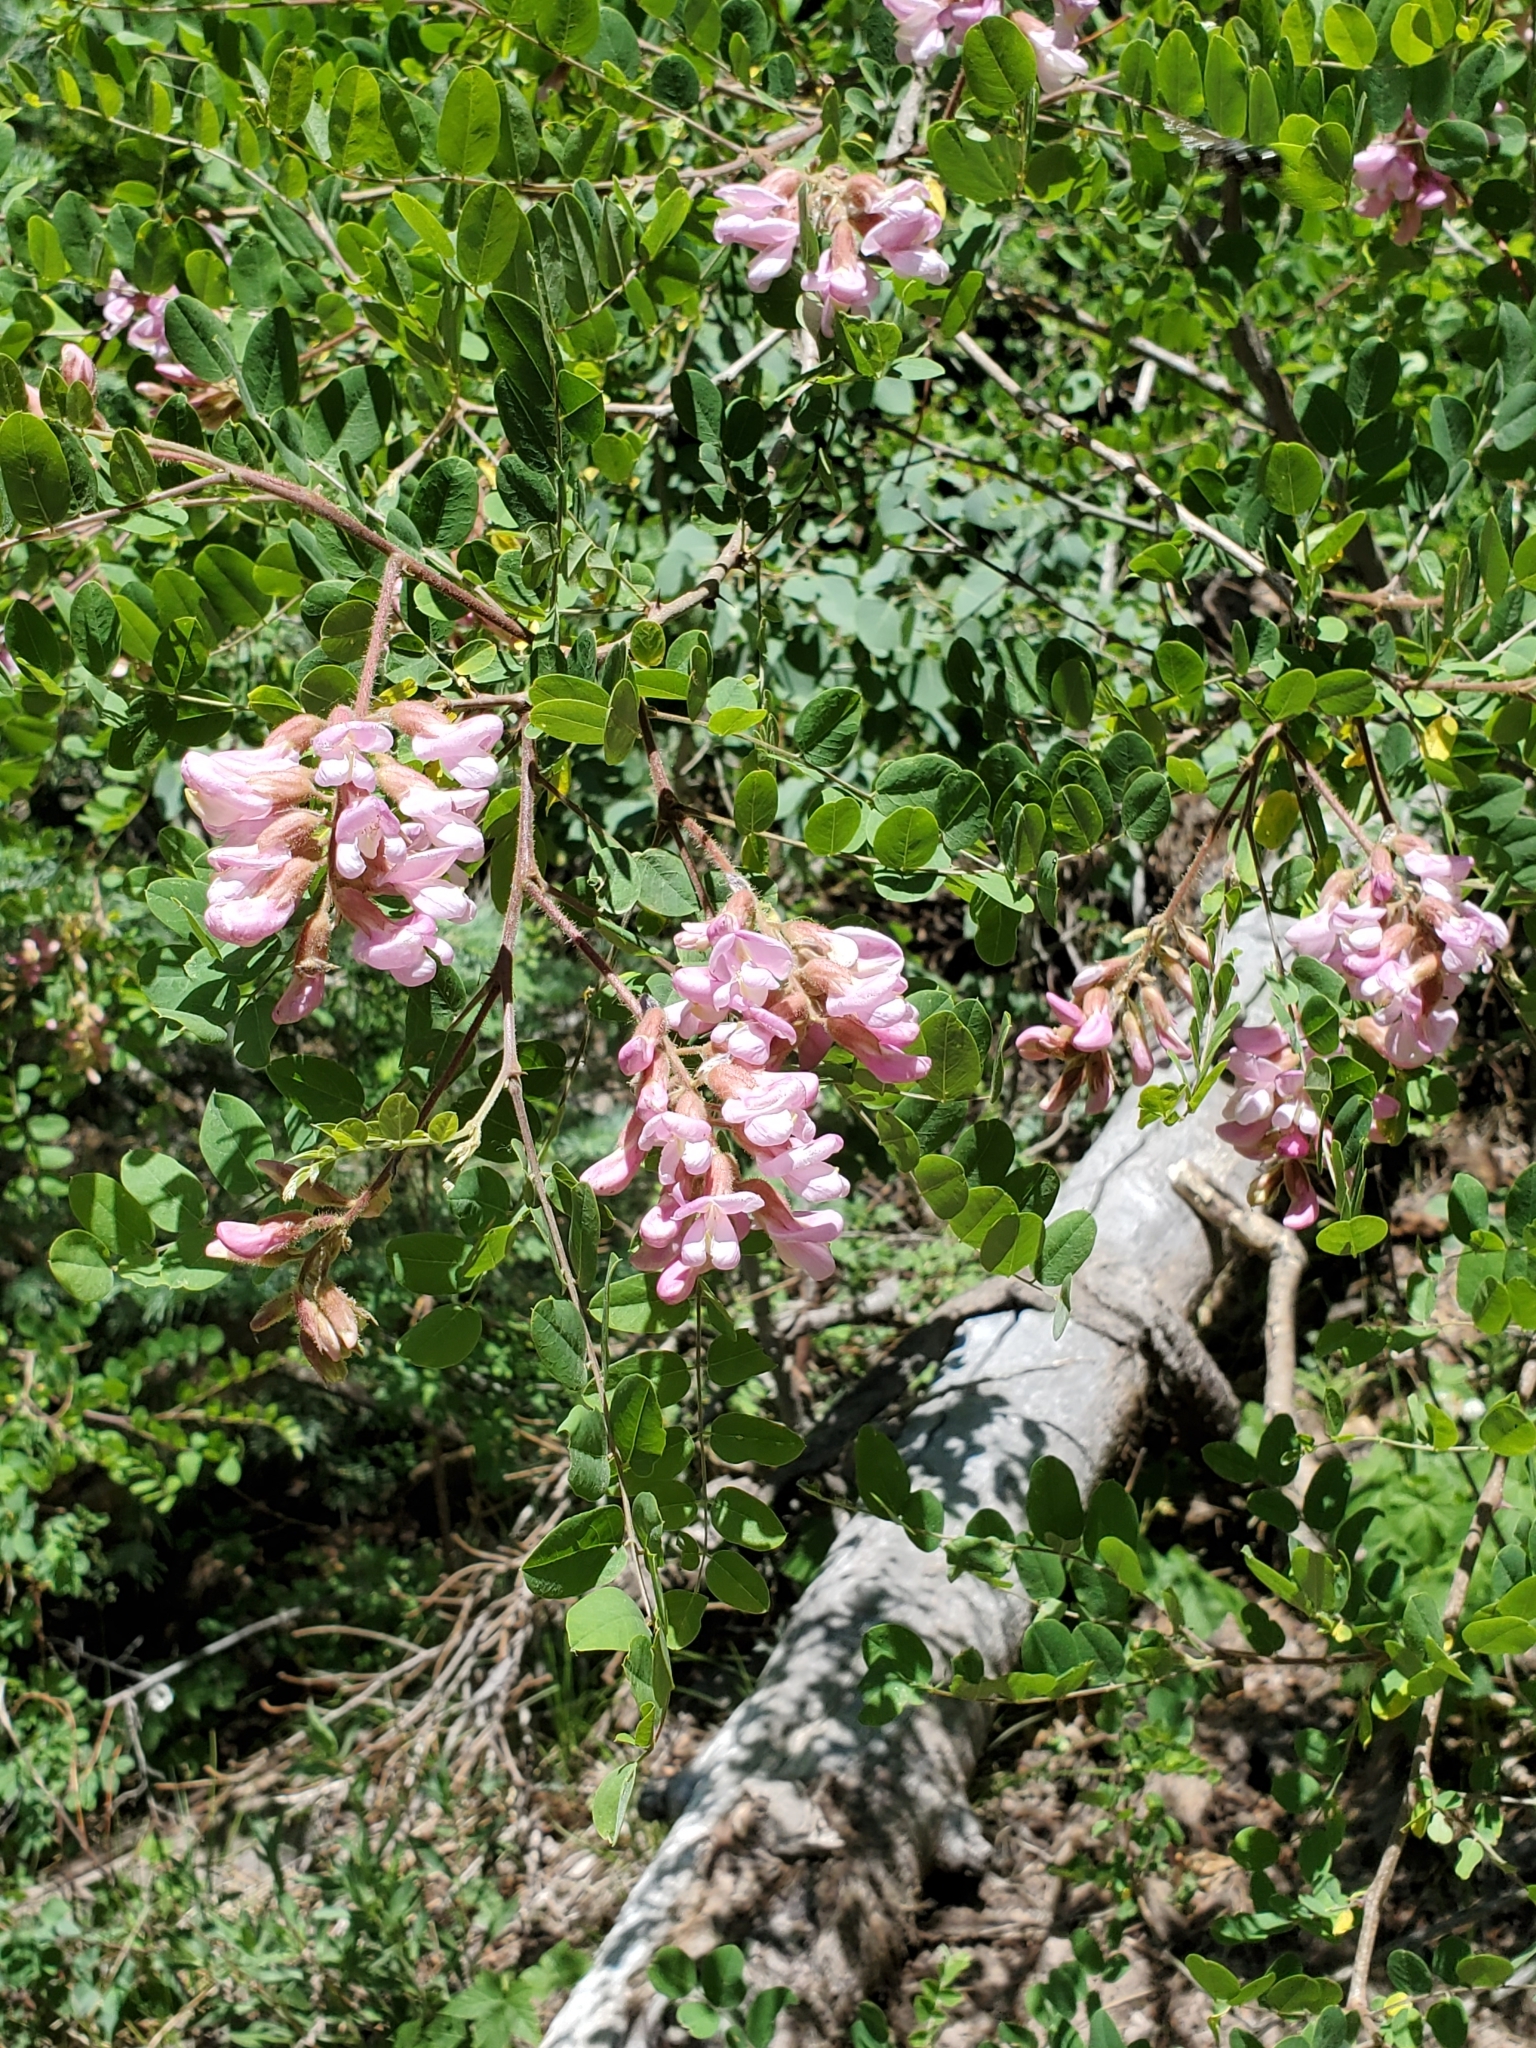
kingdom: Plantae
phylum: Tracheophyta
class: Magnoliopsida
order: Fabales
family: Fabaceae
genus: Robinia
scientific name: Robinia neomexicana
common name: New mexico locust
